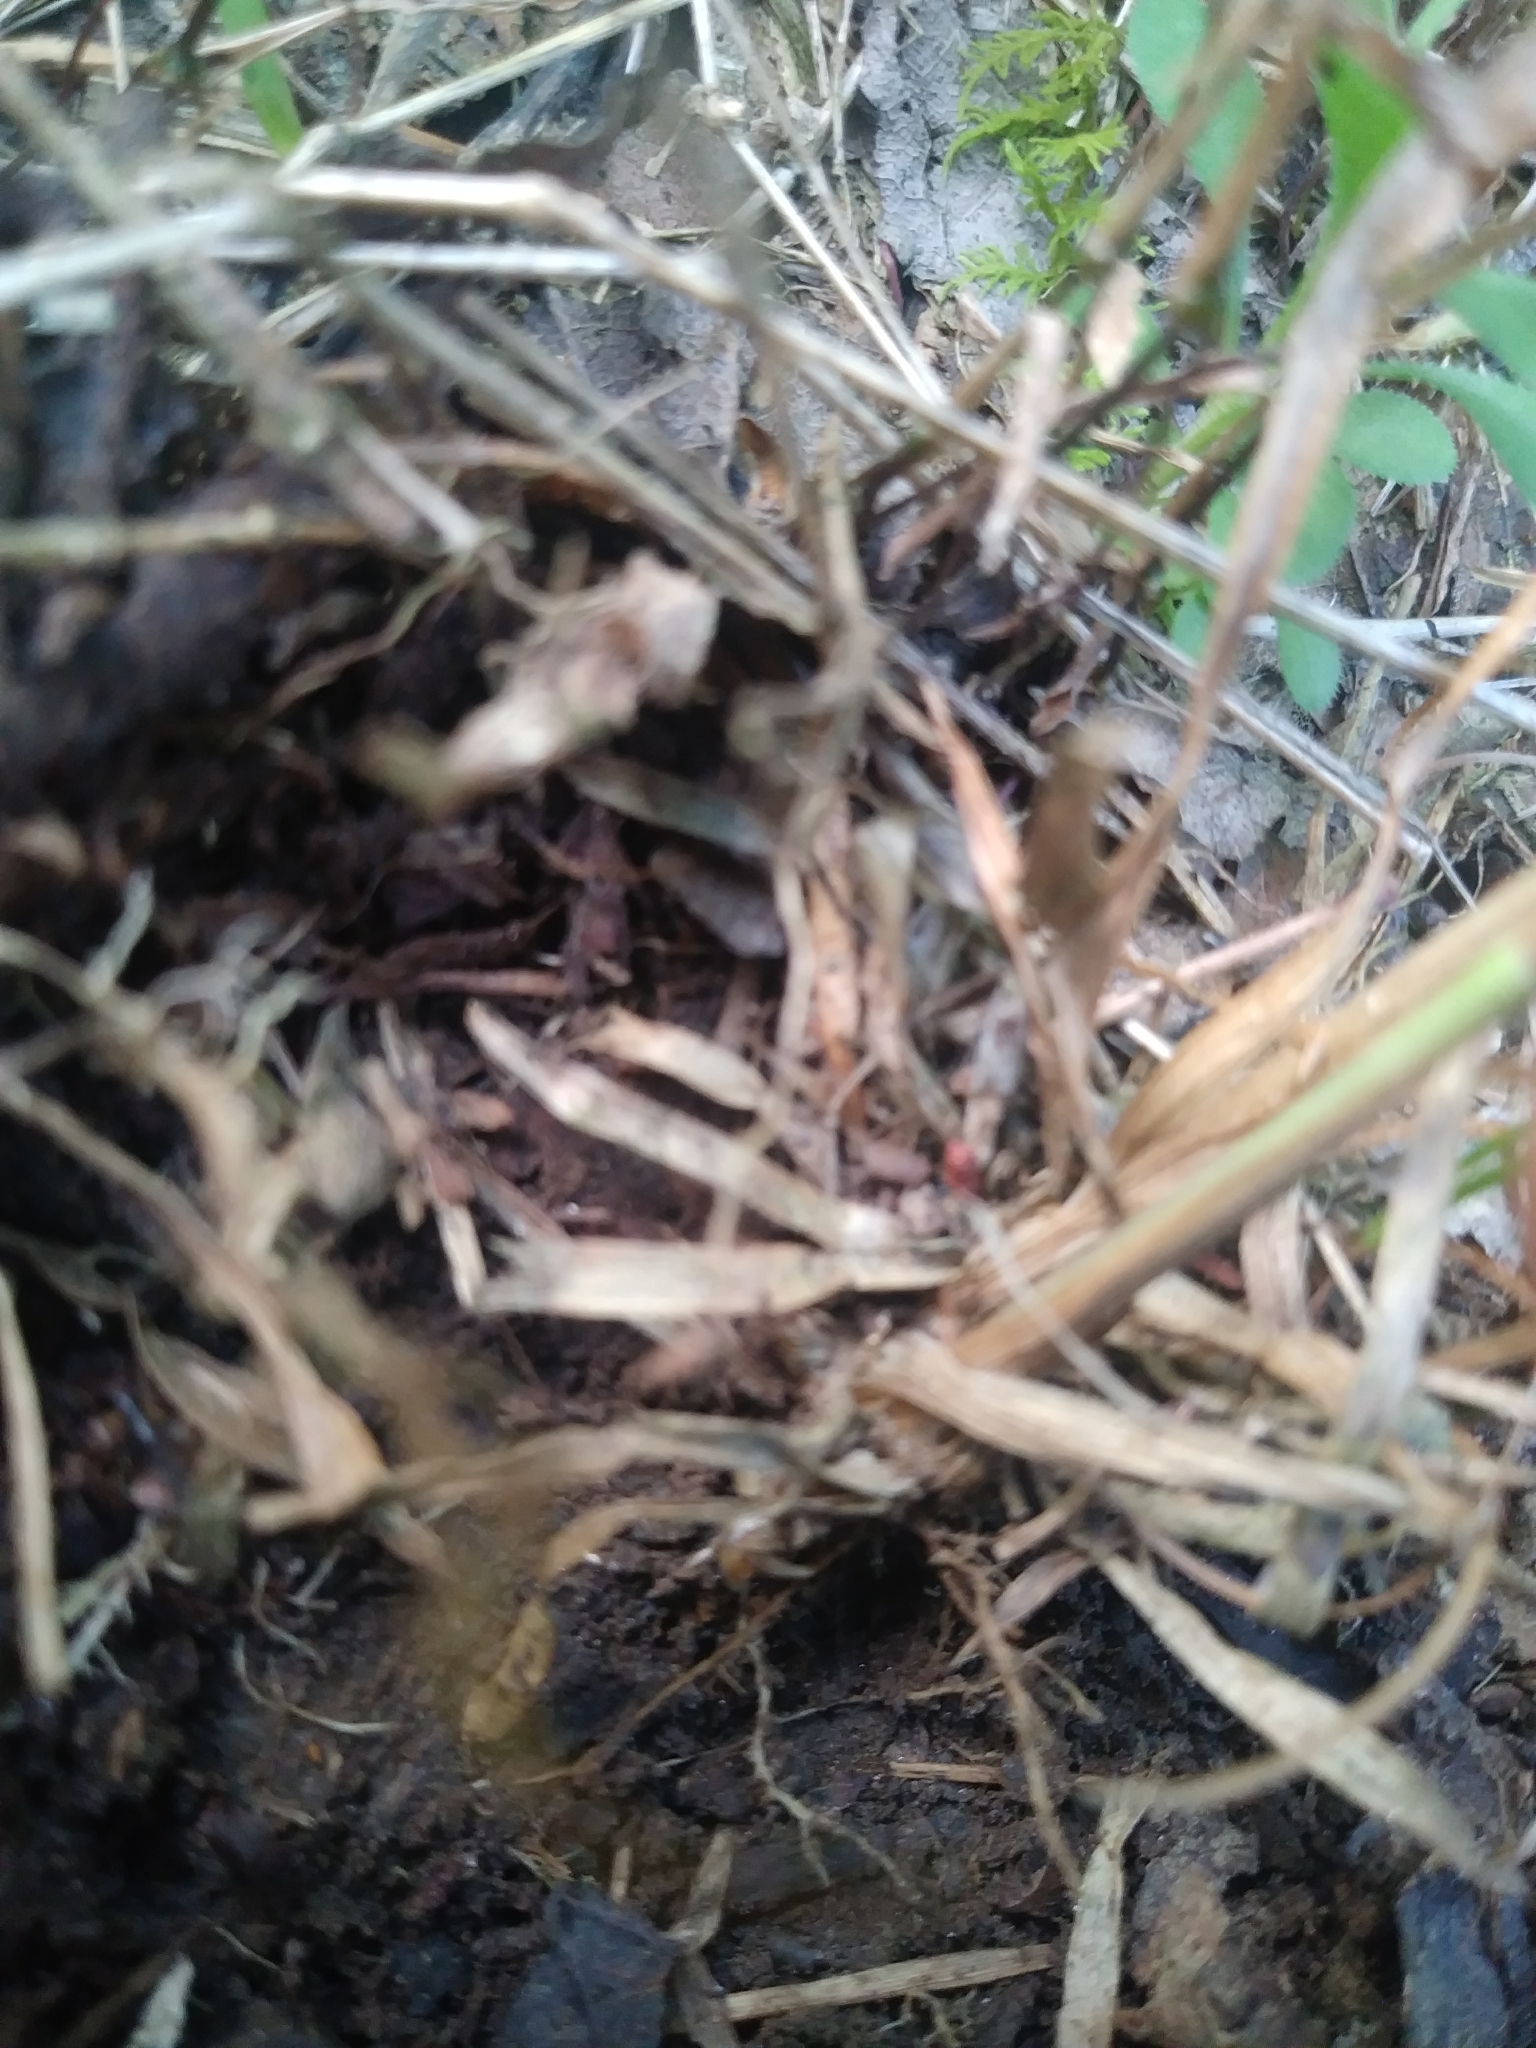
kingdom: Plantae
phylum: Tracheophyta
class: Liliopsida
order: Poales
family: Juncaceae
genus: Luzula
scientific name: Luzula multiflora
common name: Heath wood-rush
